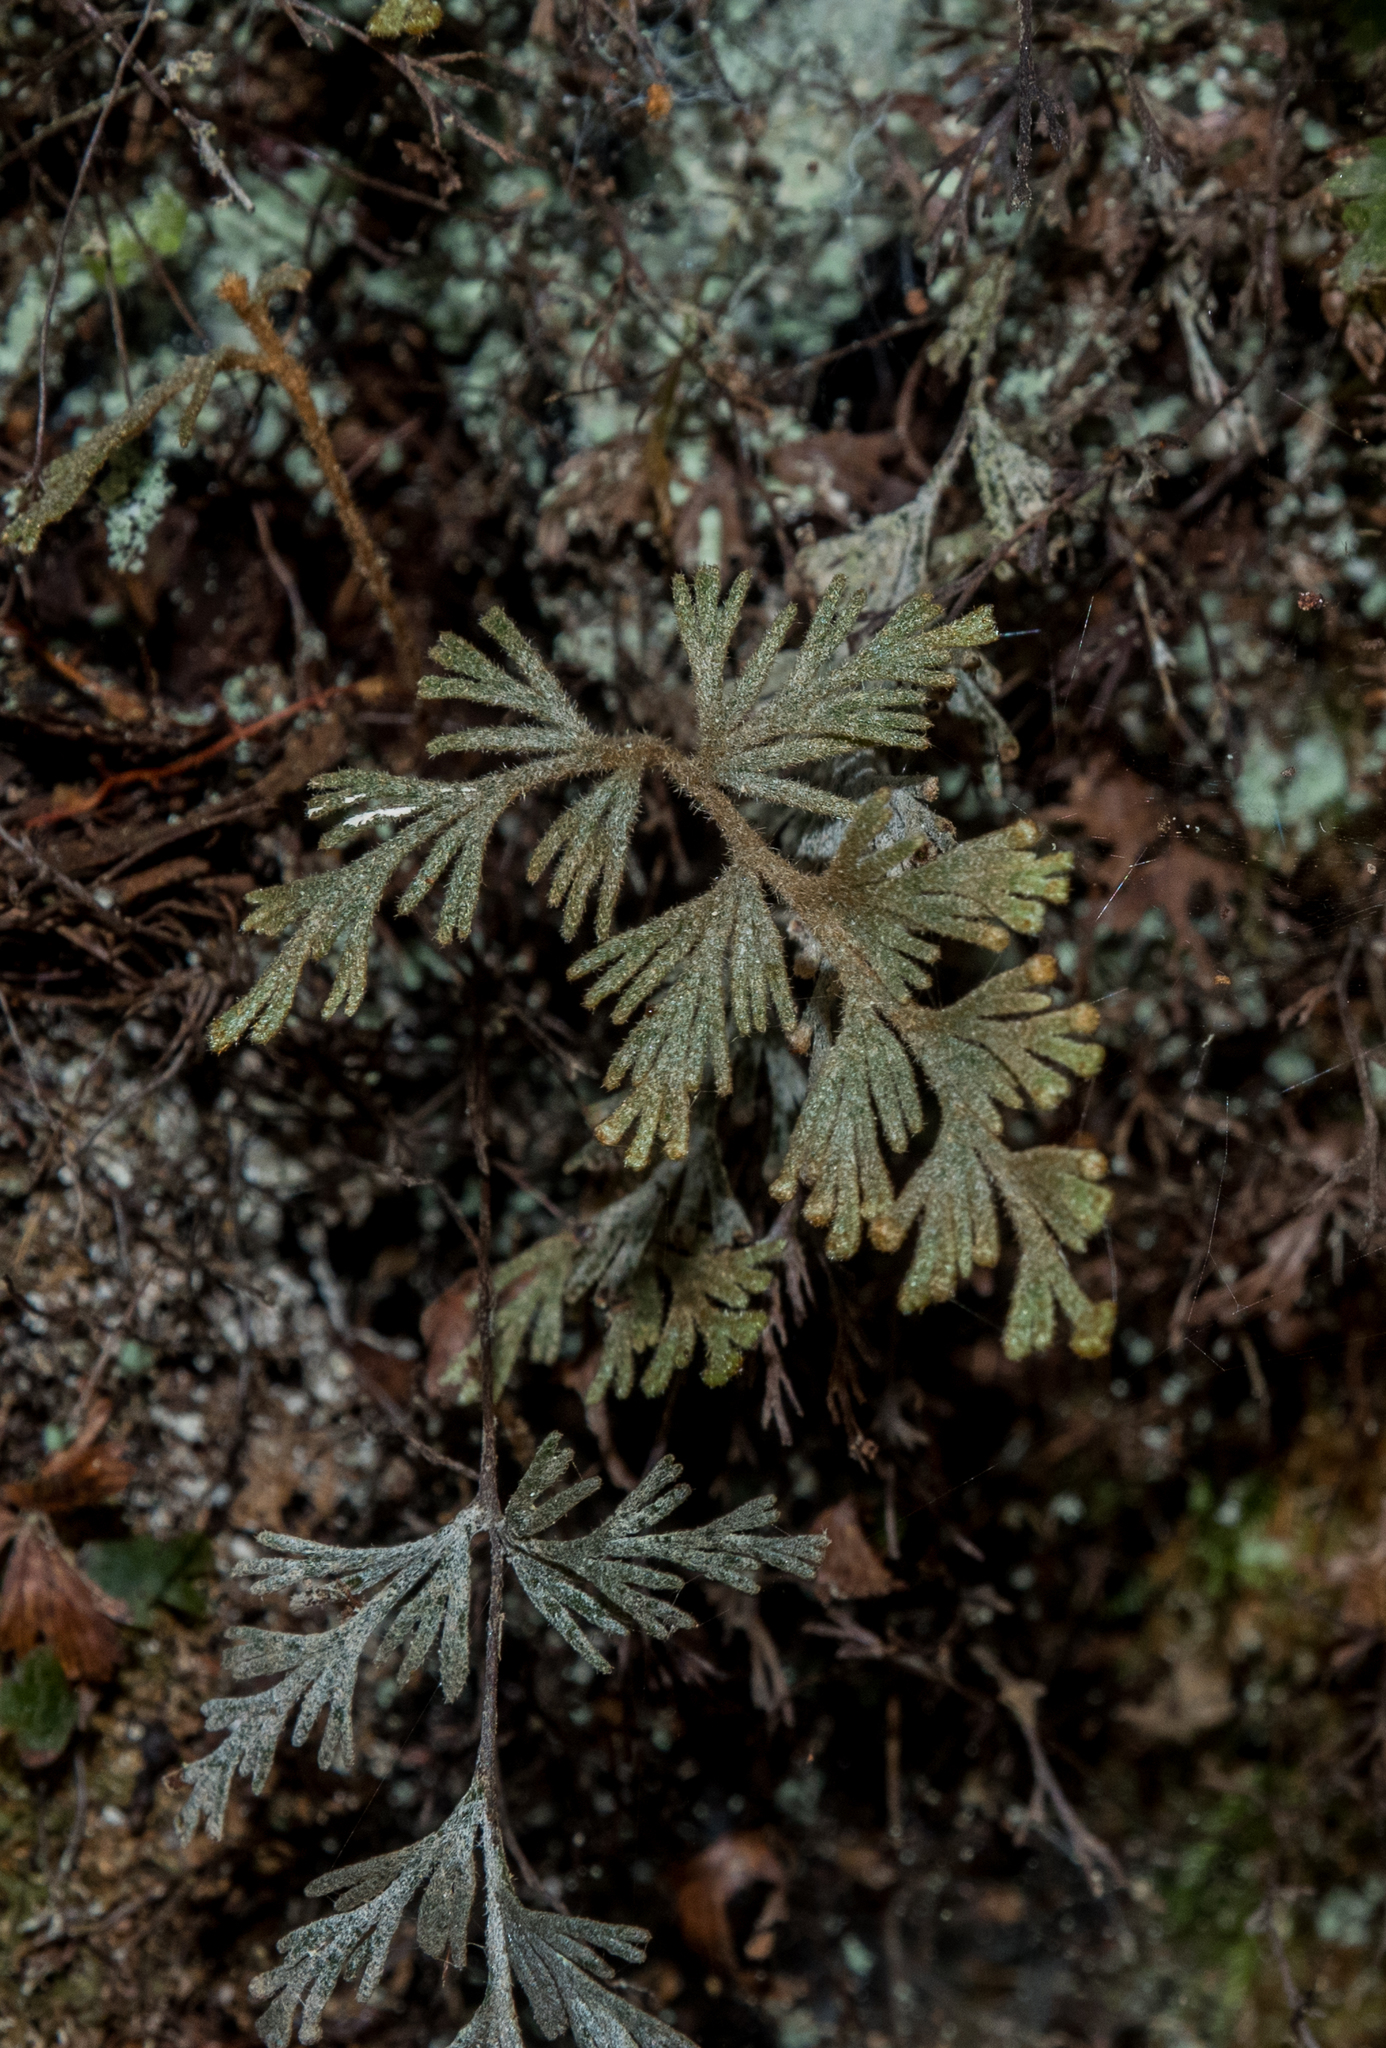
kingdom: Plantae
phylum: Tracheophyta
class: Polypodiopsida
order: Hymenophyllales
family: Hymenophyllaceae
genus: Hymenophyllum
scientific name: Hymenophyllum malingii
